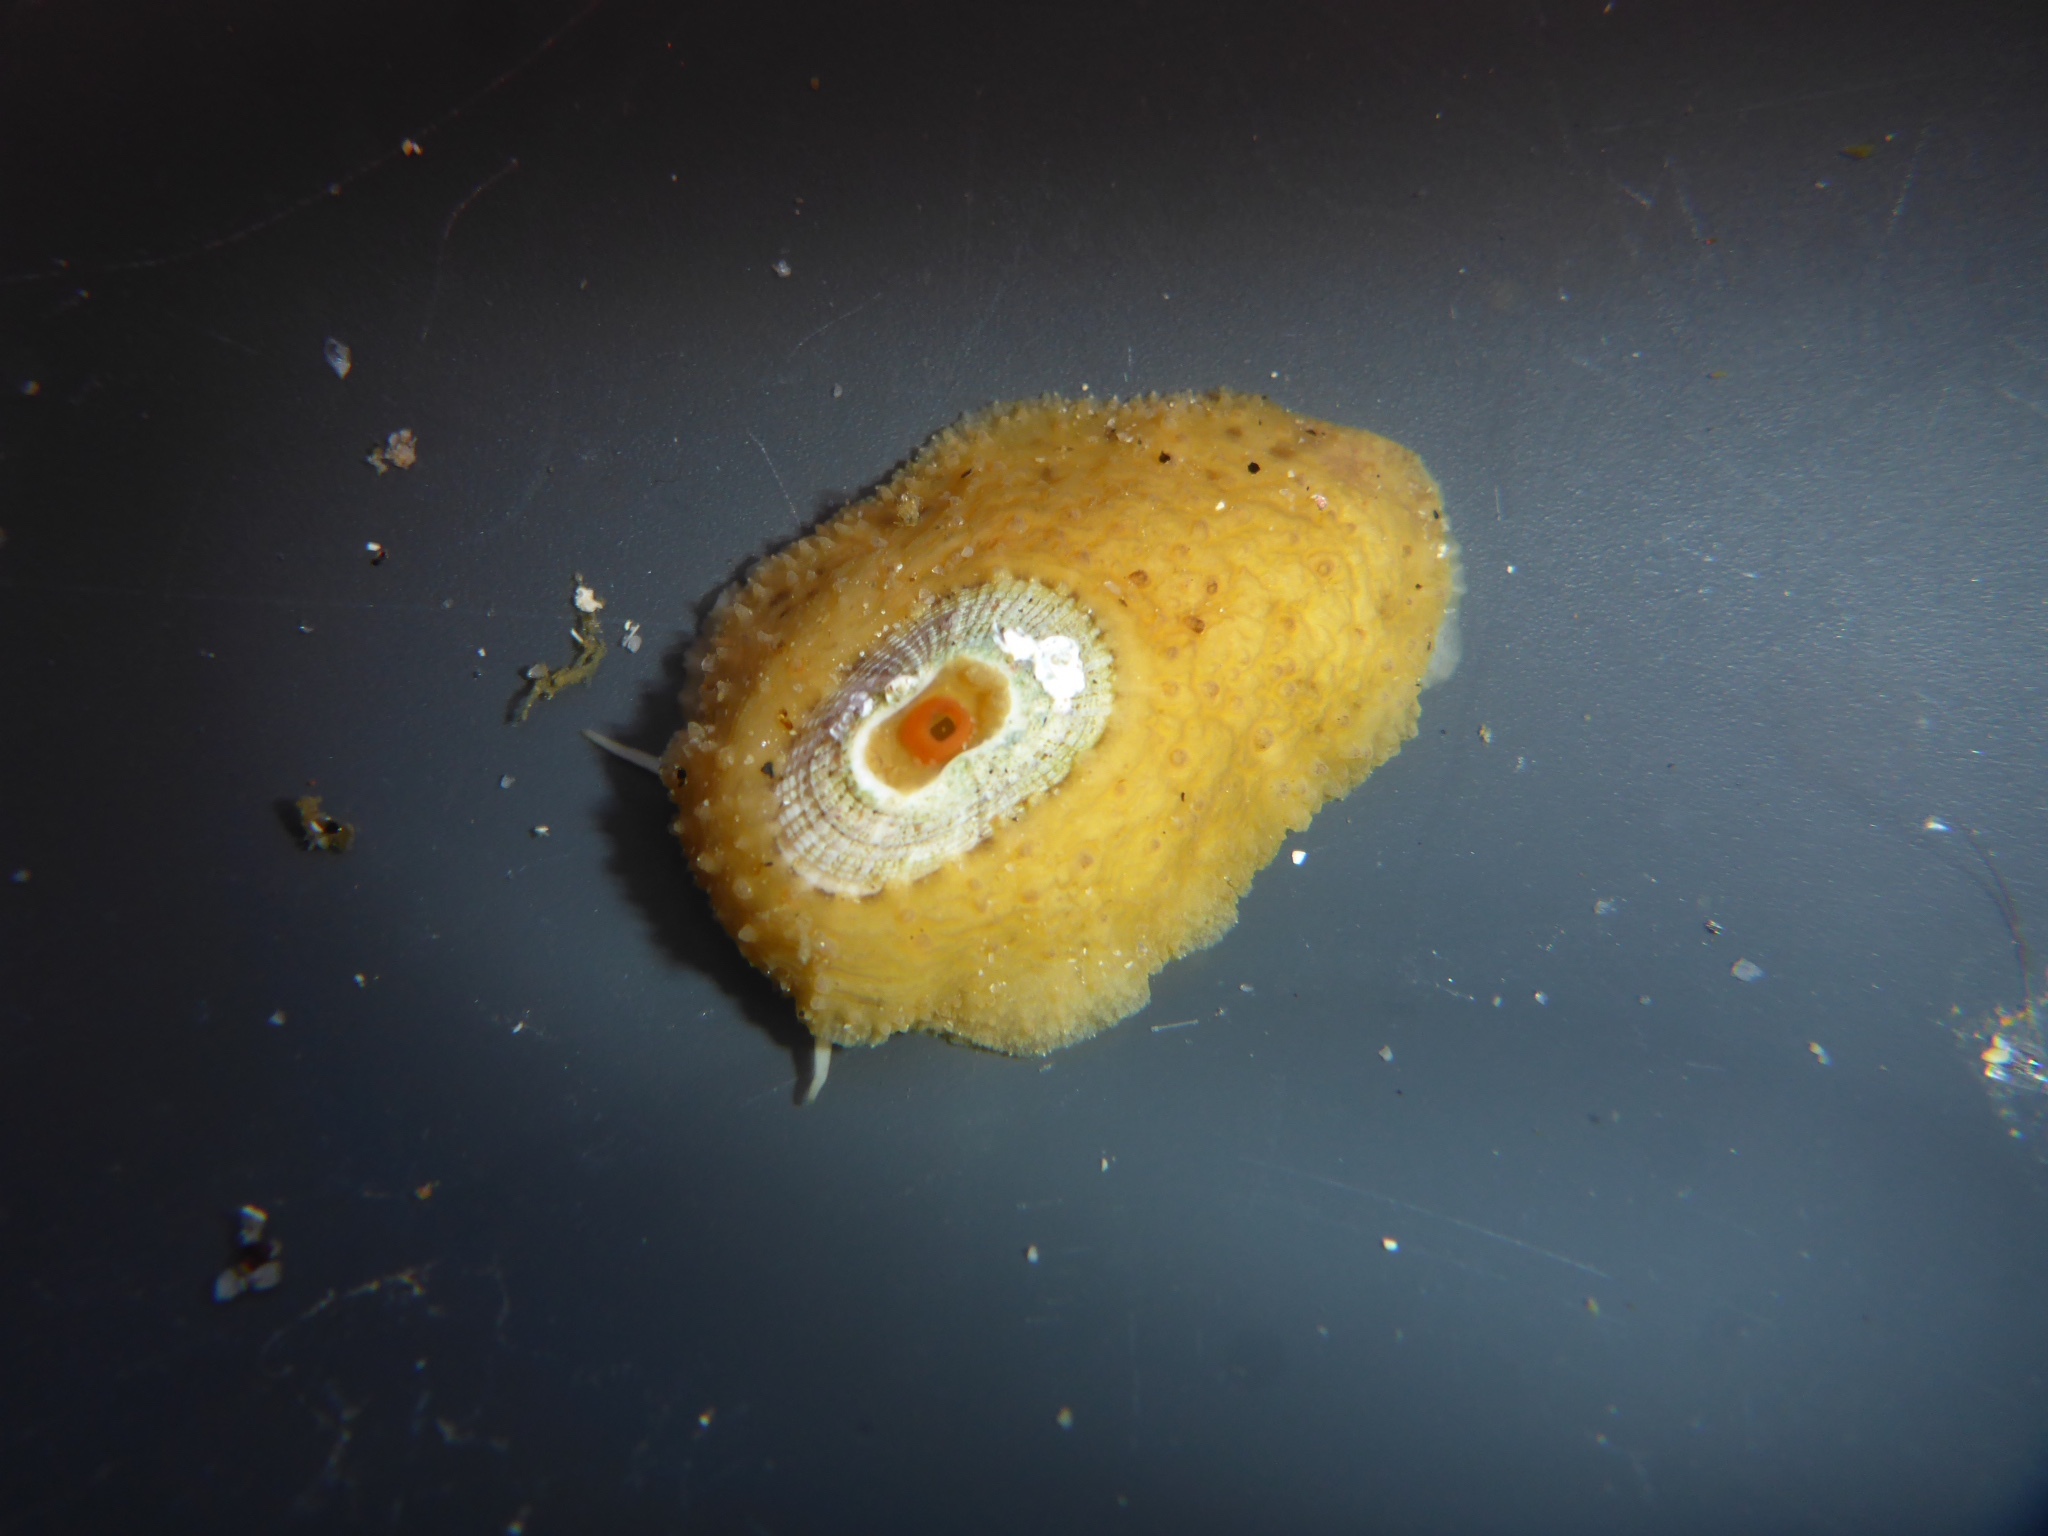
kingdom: Animalia
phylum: Mollusca
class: Gastropoda
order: Lepetellida
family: Fissurellidae
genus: Fissurellidea
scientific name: Fissurellidea bimaculata
